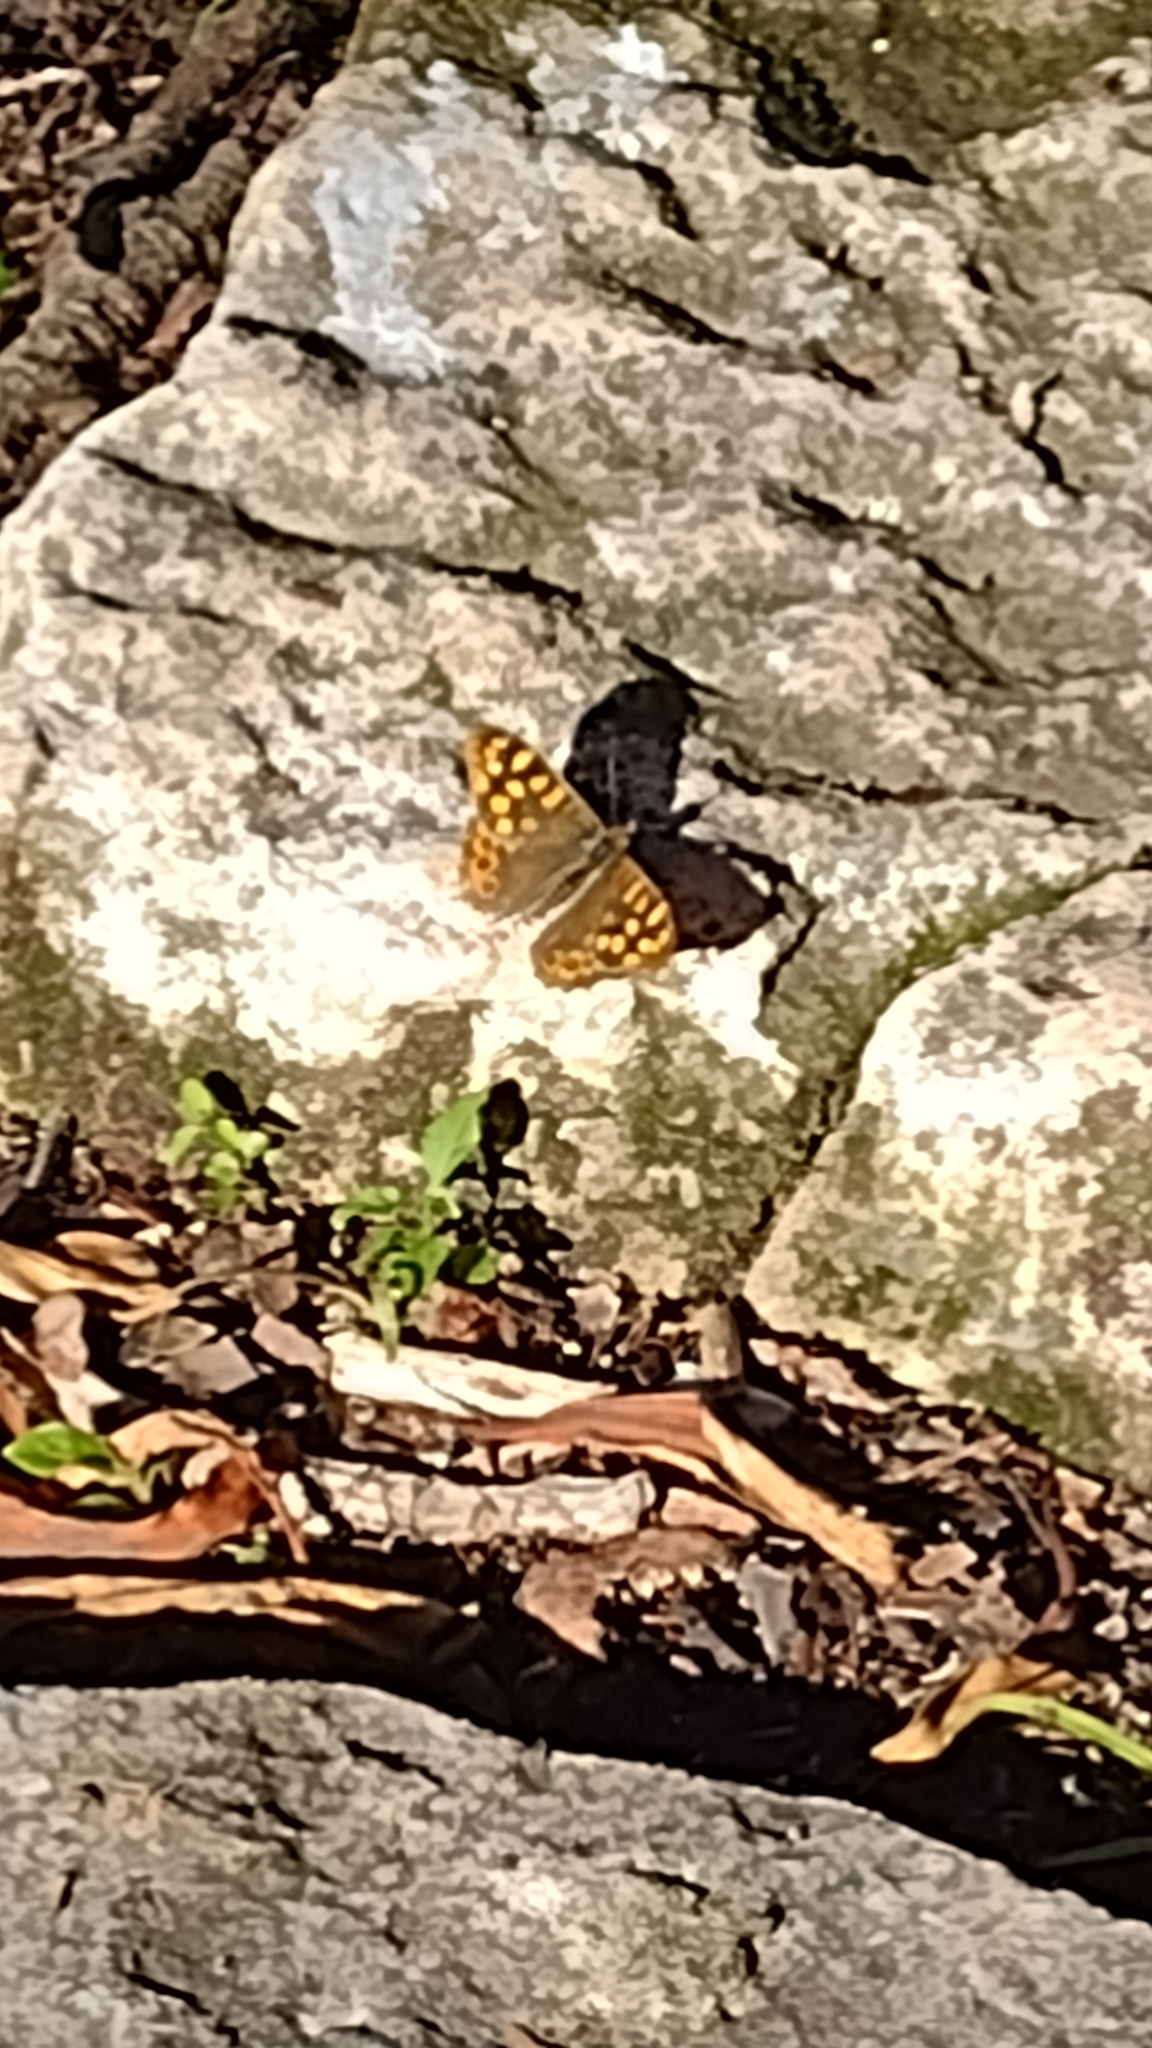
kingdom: Animalia
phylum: Arthropoda
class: Insecta
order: Lepidoptera
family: Nymphalidae
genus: Pararge
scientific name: Pararge aegeria
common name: Speckled wood
